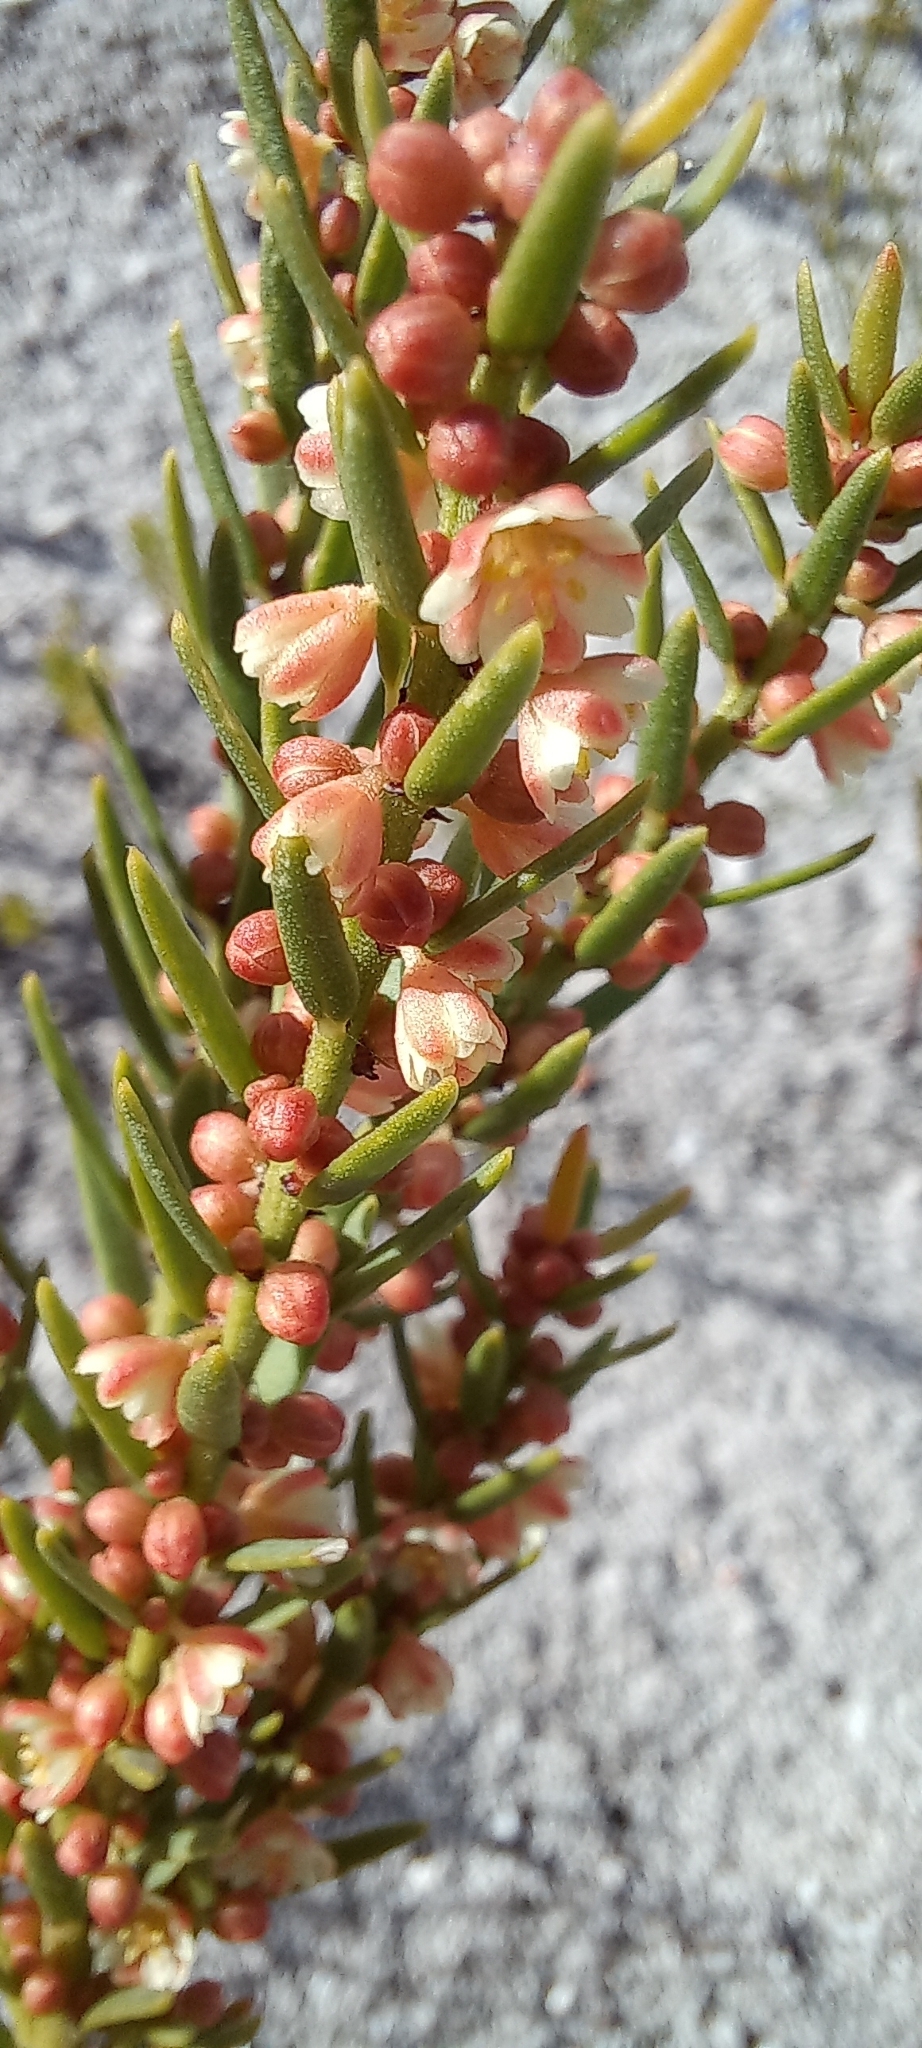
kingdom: Plantae
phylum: Tracheophyta
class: Magnoliopsida
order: Malpighiales
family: Peraceae
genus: Clutia
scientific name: Clutia ericoides
